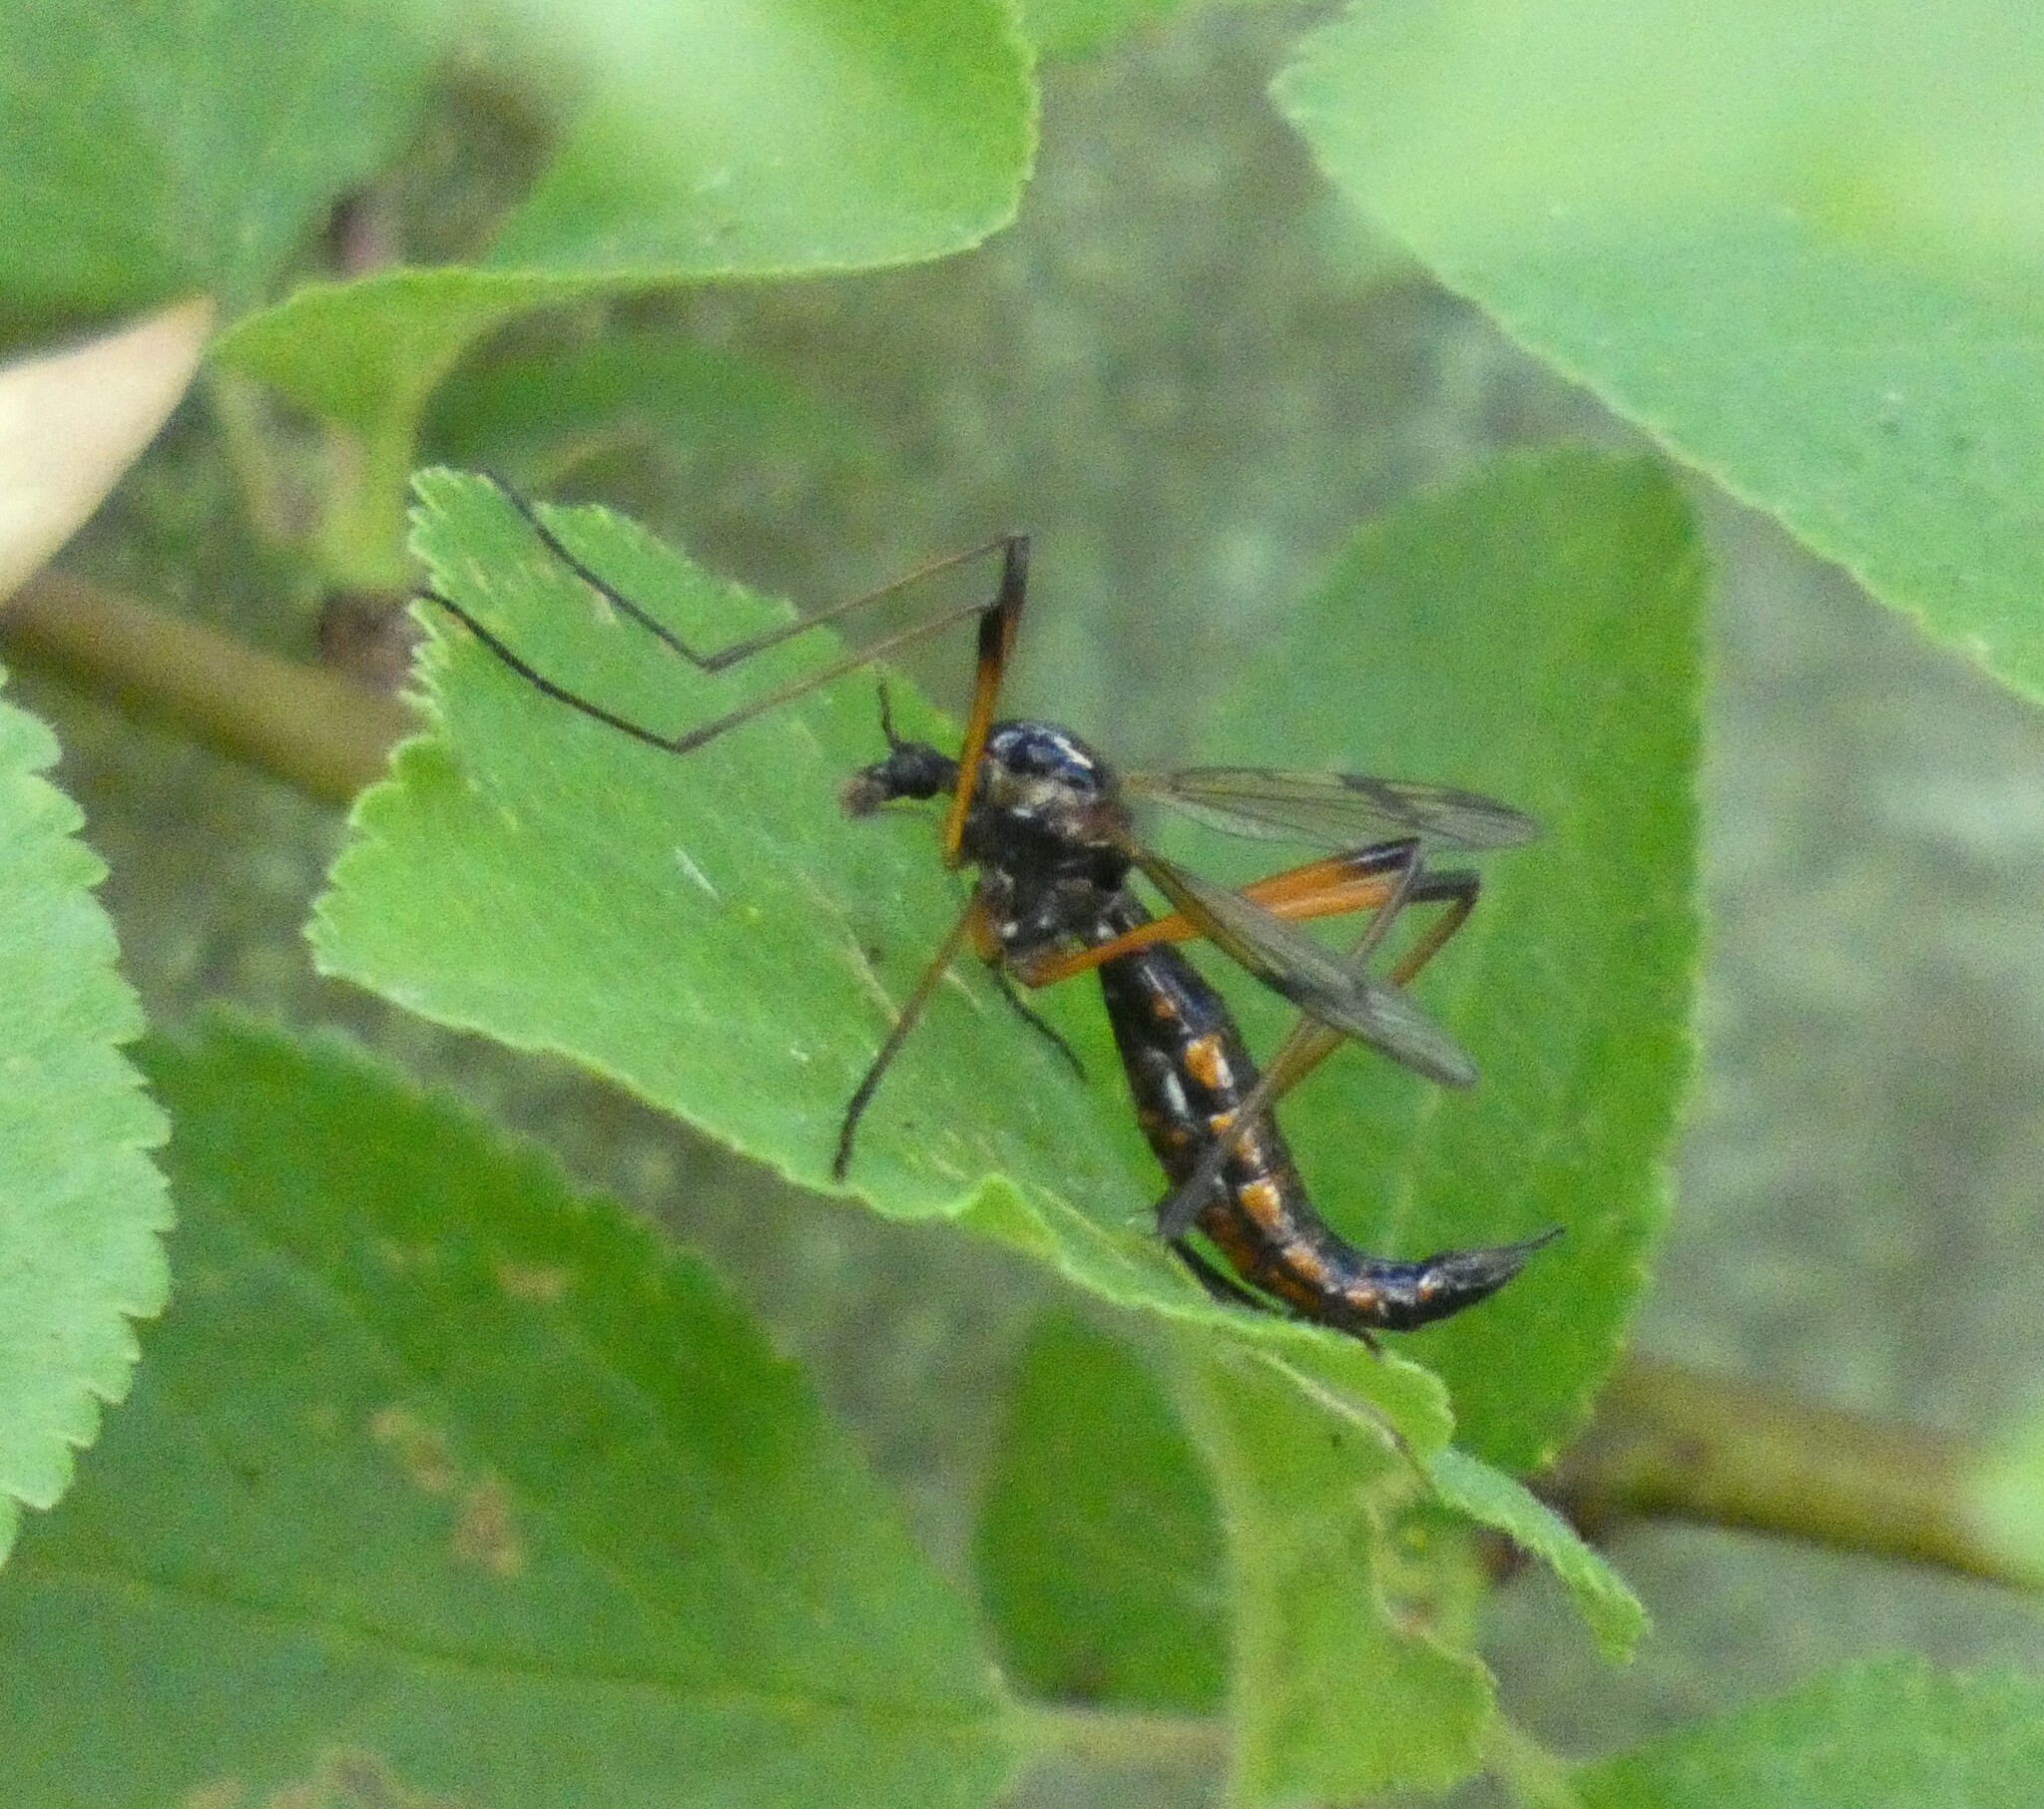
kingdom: Animalia
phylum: Arthropoda
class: Insecta
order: Diptera
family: Tipulidae
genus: Dictenidia
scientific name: Dictenidia bimaculata
